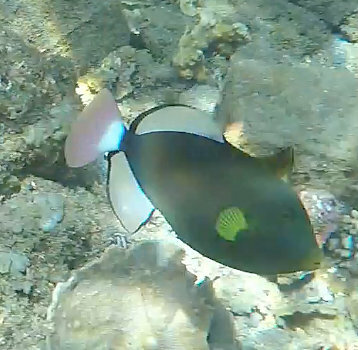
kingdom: Animalia
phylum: Chordata
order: Tetraodontiformes
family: Balistidae
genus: Melichthys
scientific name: Melichthys vidua
